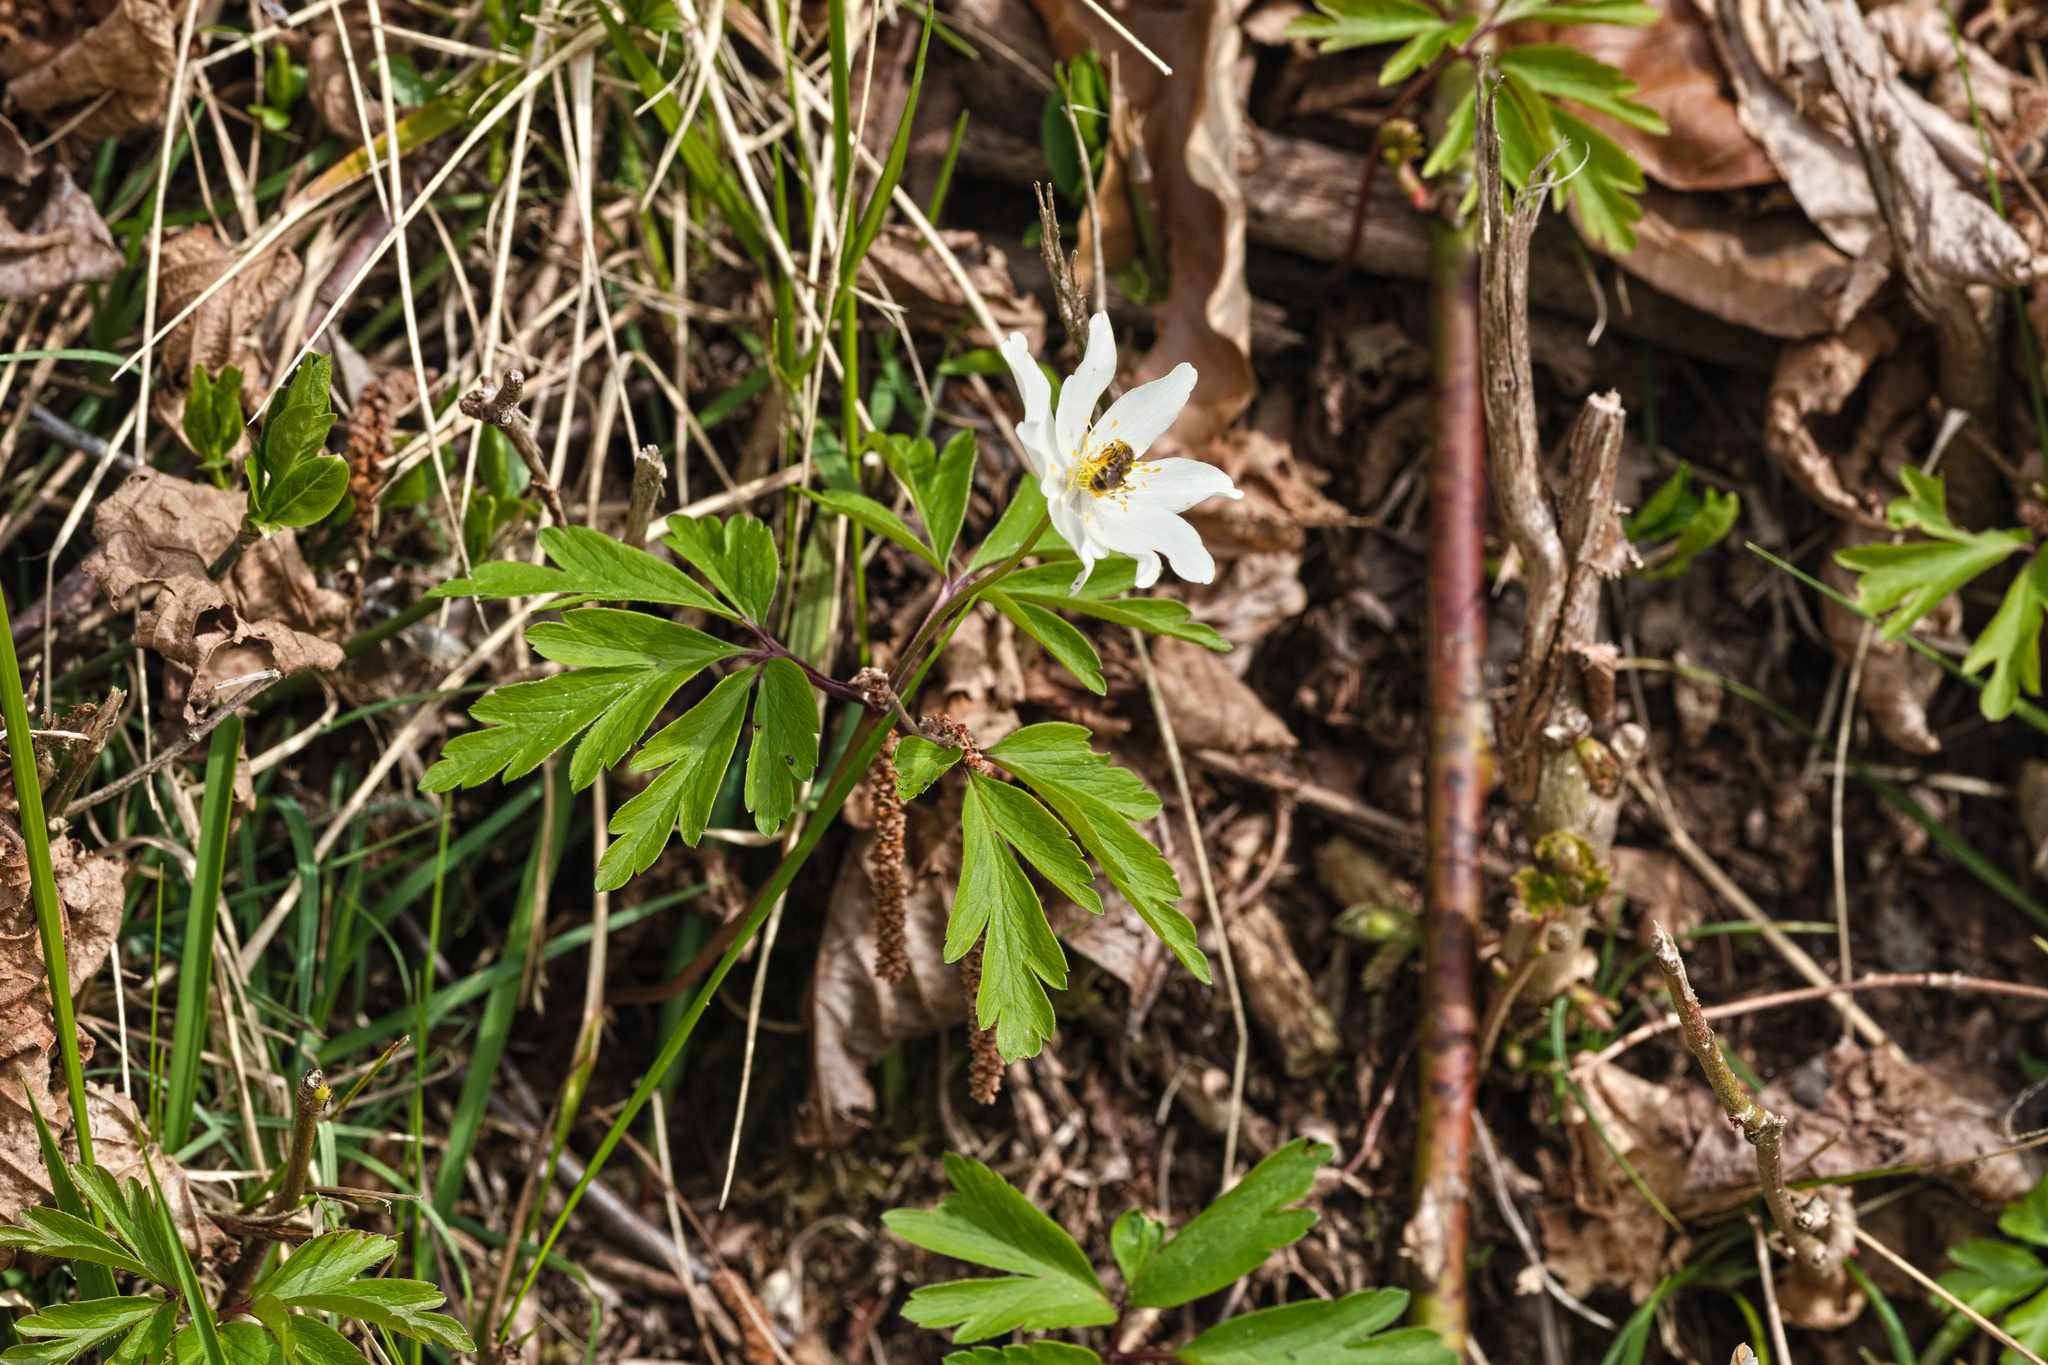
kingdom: Plantae
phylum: Tracheophyta
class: Magnoliopsida
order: Ranunculales
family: Ranunculaceae
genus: Anemone
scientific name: Anemone nemorosa
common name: Wood anemone
